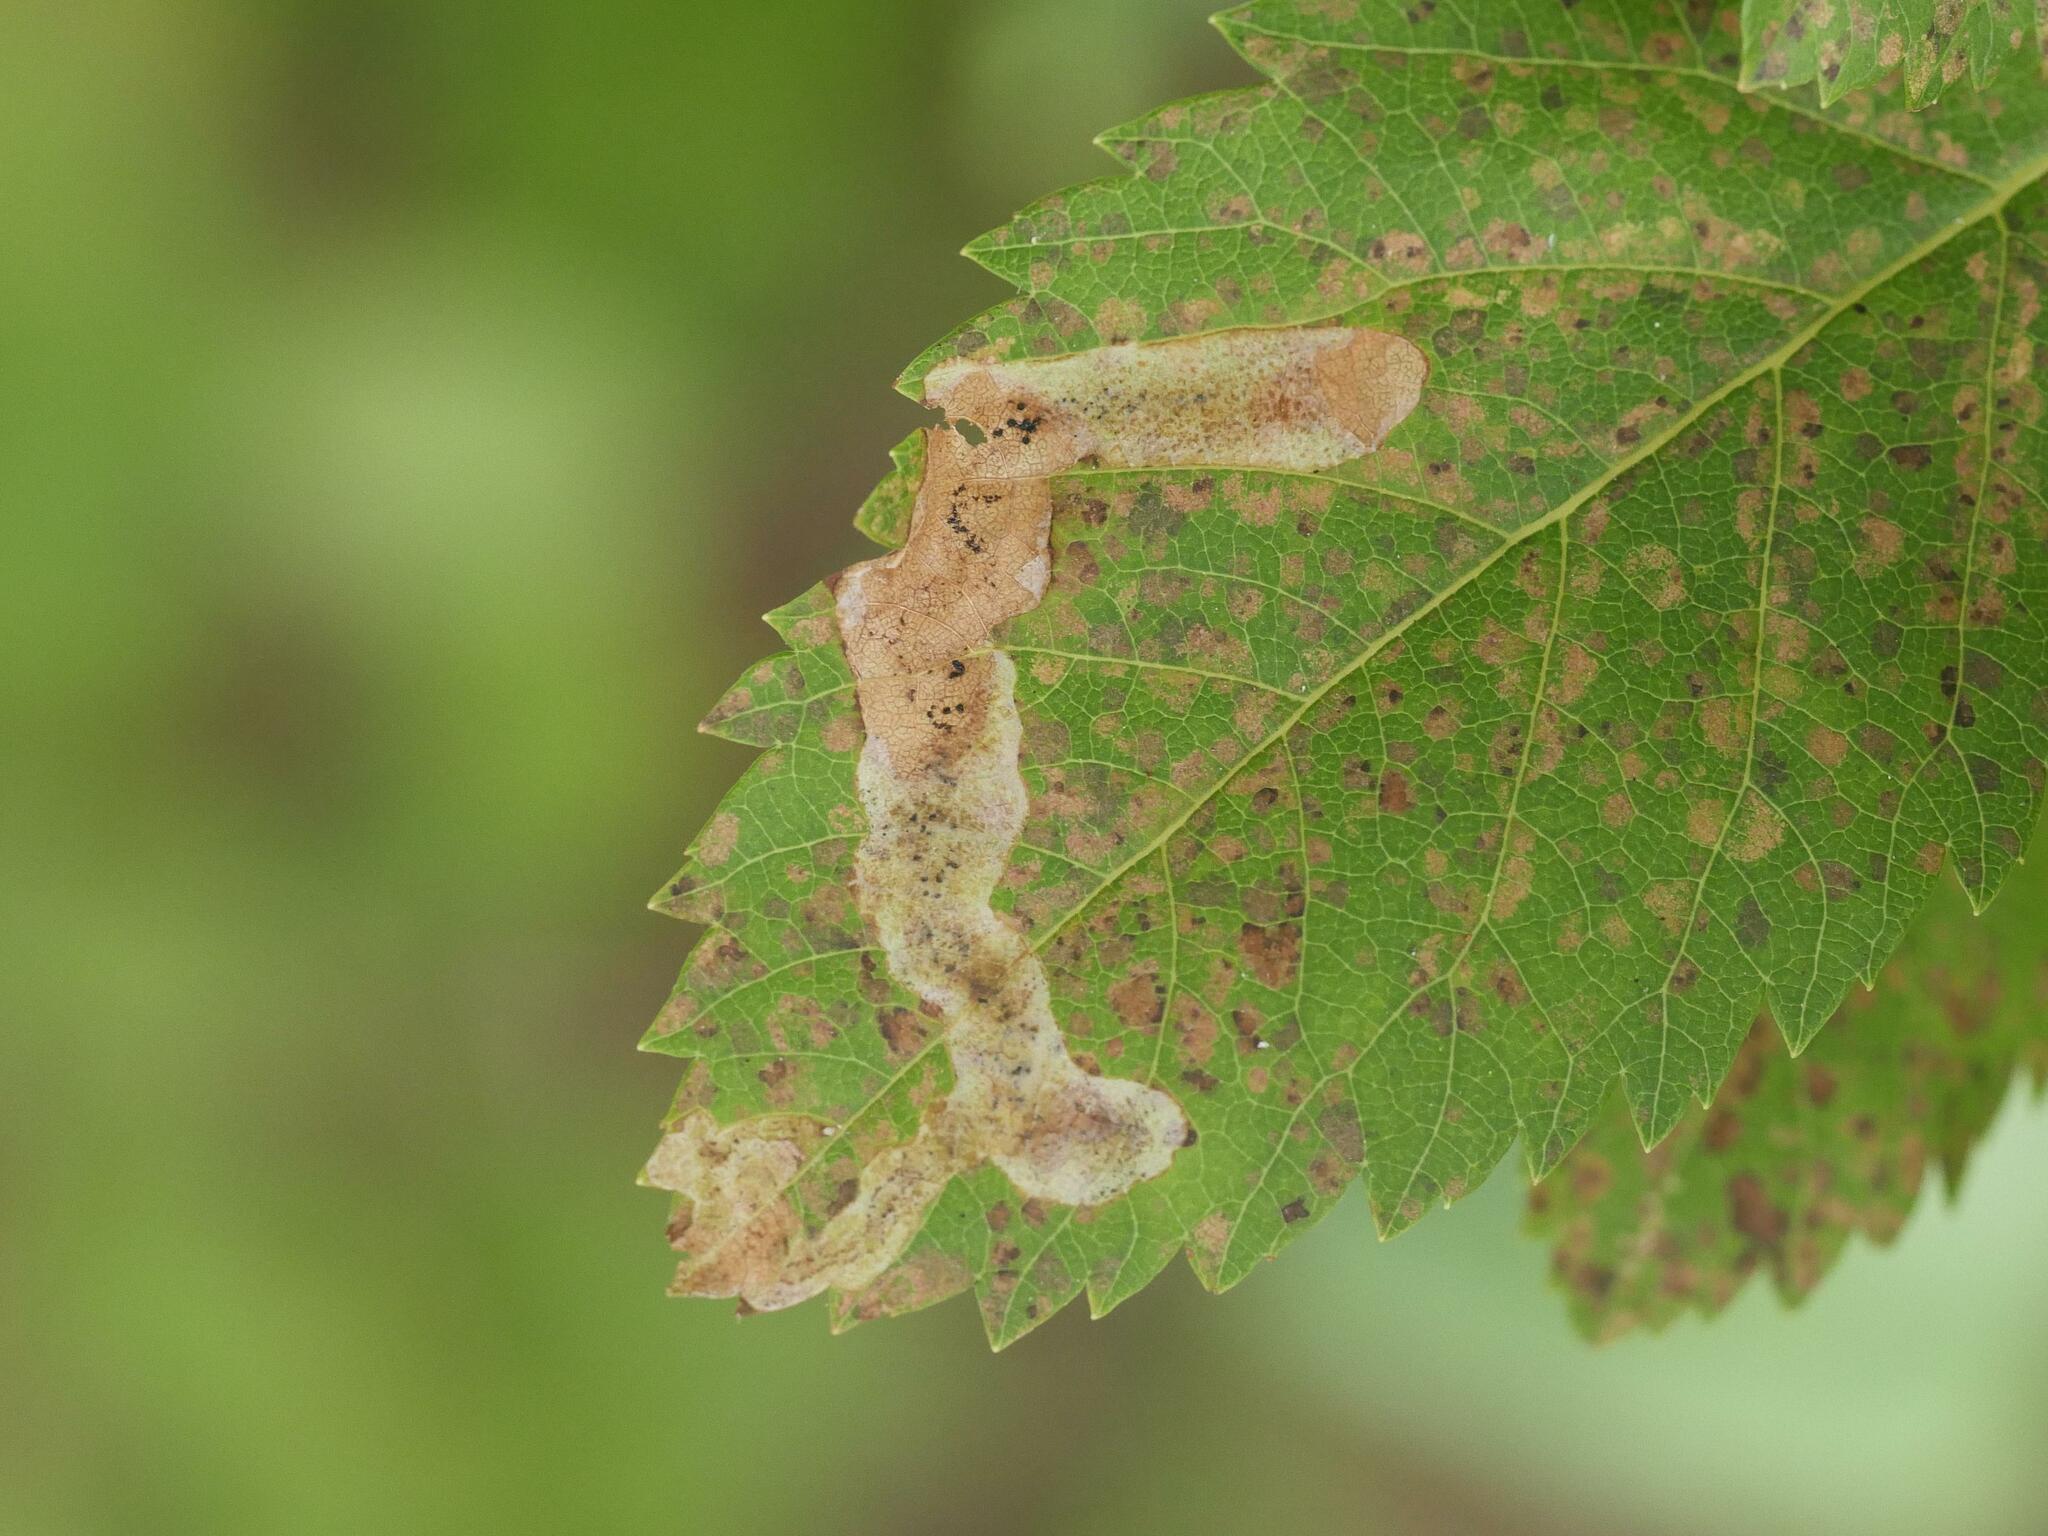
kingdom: Animalia
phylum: Arthropoda
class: Insecta
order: Diptera
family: Agromyzidae
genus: Agromyza
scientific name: Agromyza valdorensis
